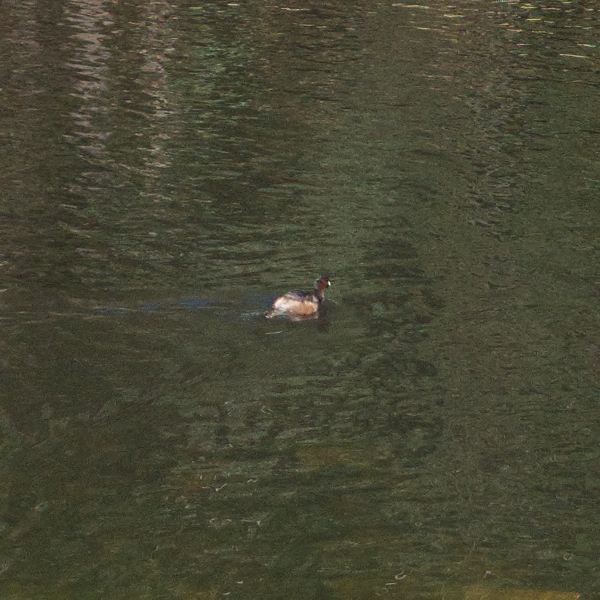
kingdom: Animalia
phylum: Chordata
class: Aves
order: Podicipediformes
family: Podicipedidae
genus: Tachybaptus
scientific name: Tachybaptus novaehollandiae
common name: Australasian grebe
